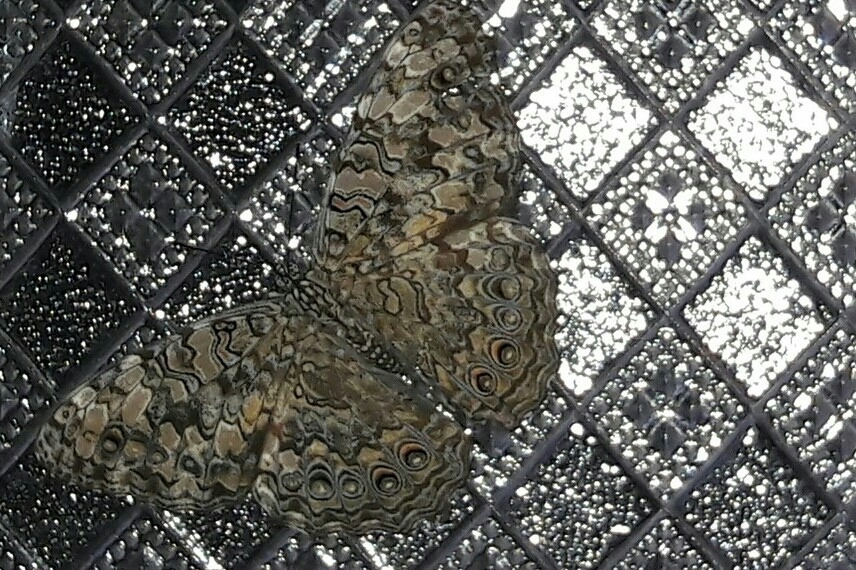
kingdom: Animalia
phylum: Arthropoda
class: Insecta
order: Lepidoptera
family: Nymphalidae
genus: Hamadryas
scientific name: Hamadryas februa
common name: Gray cracker
